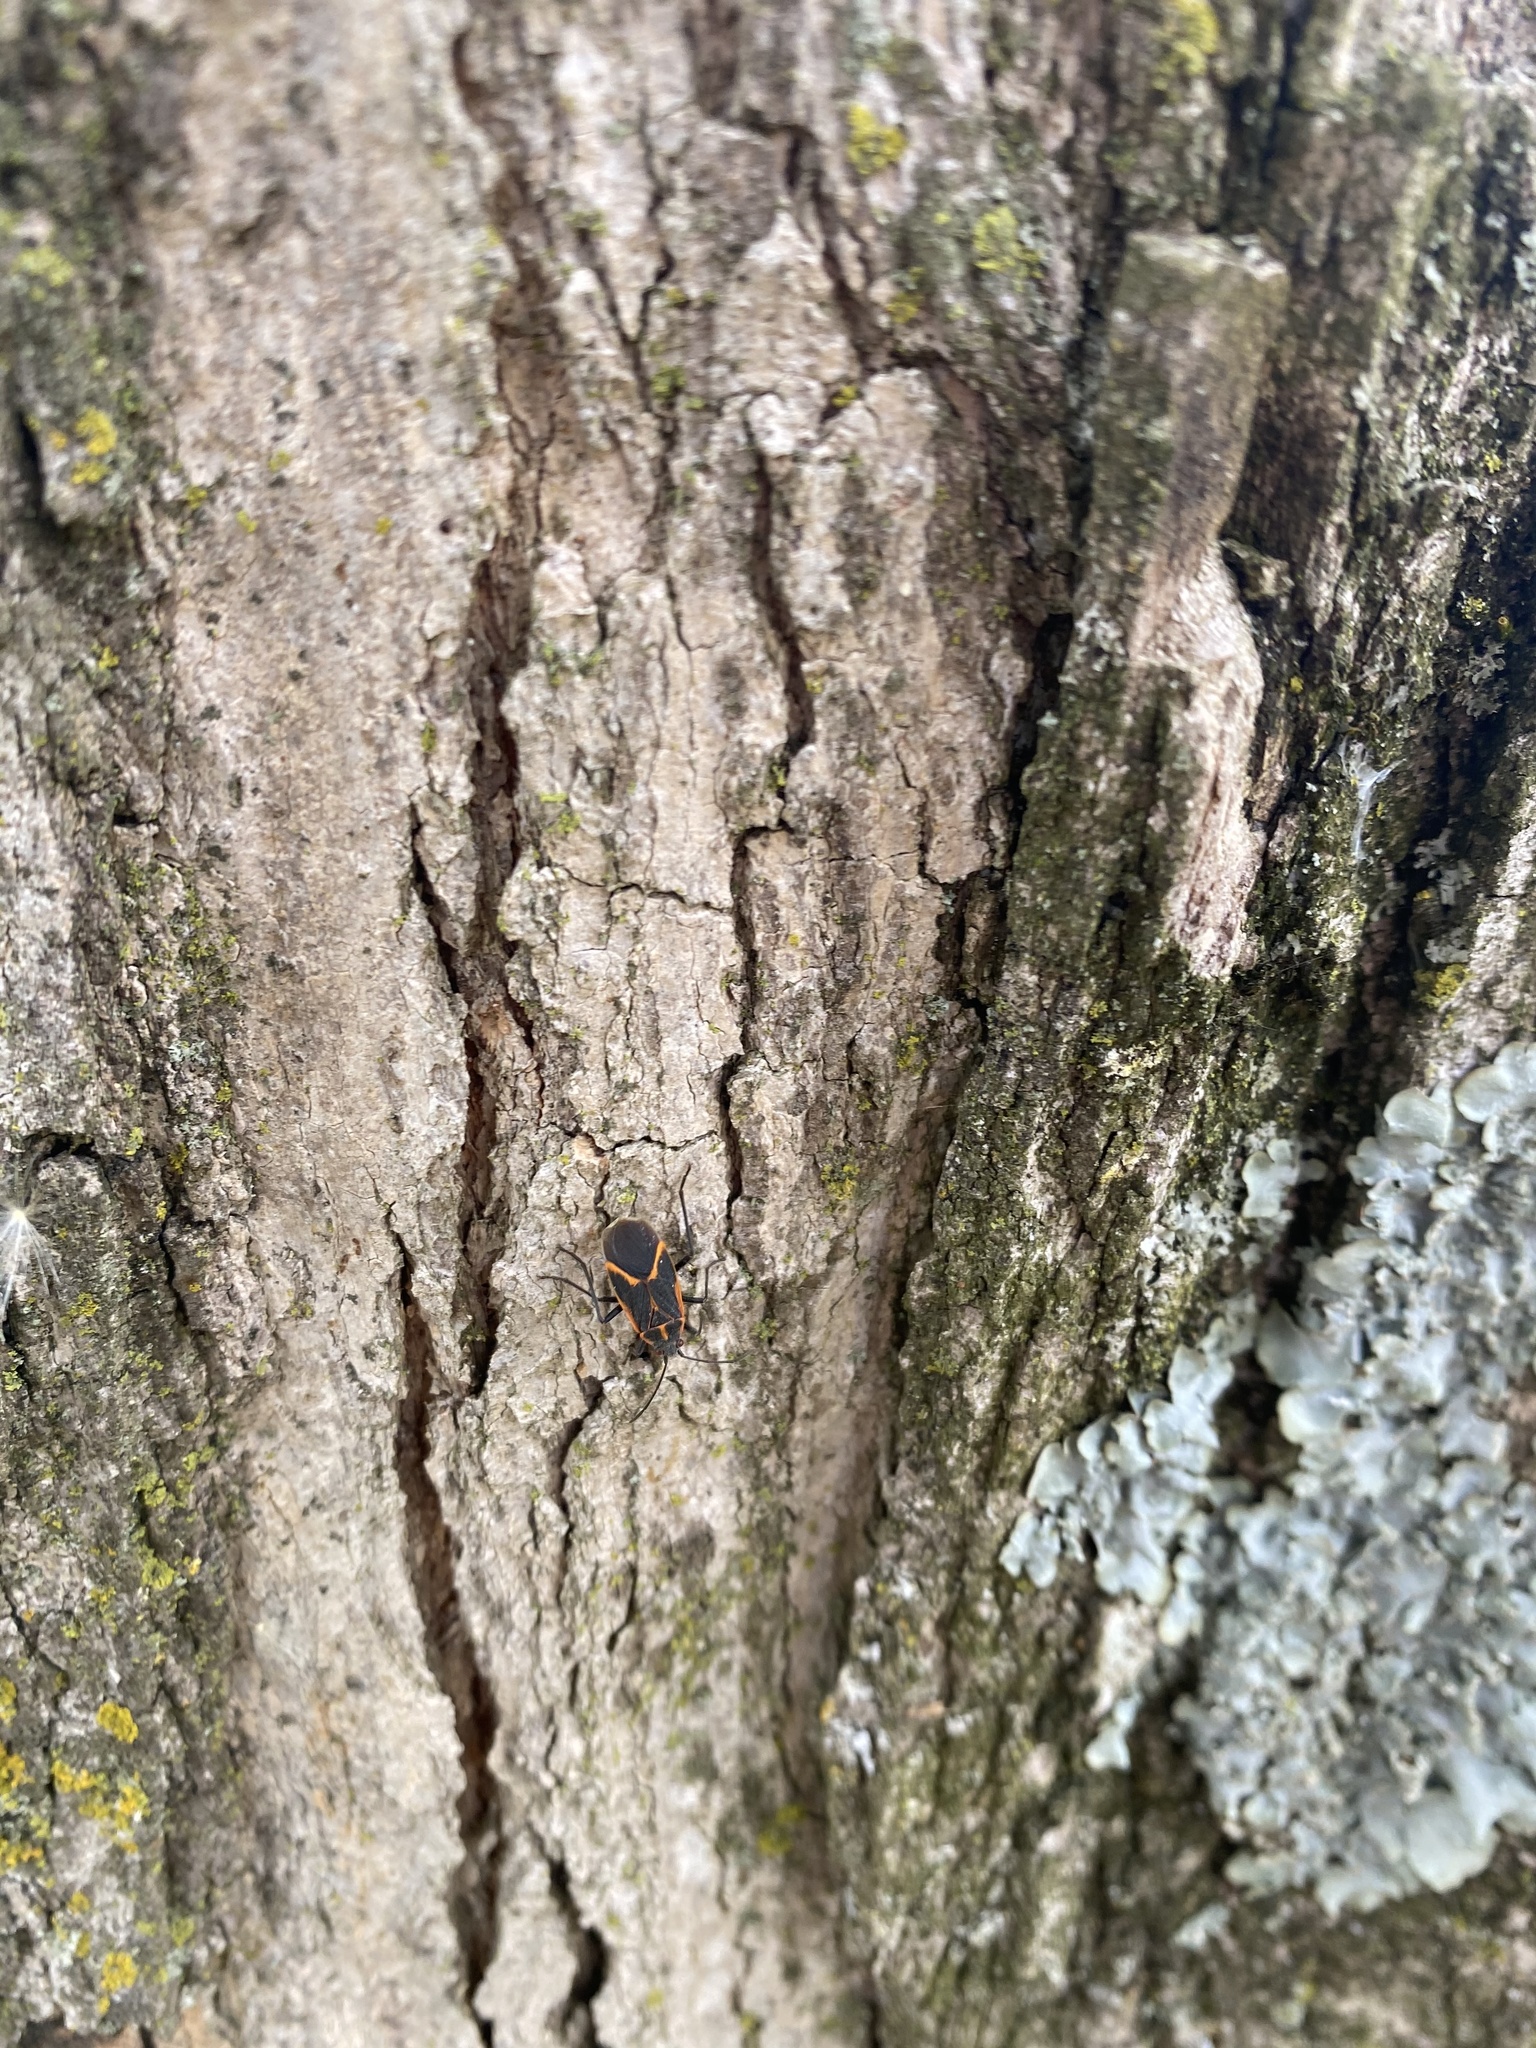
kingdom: Animalia
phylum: Arthropoda
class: Insecta
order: Hemiptera
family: Rhopalidae
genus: Boisea
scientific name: Boisea trivittata
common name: Boxelder bug
